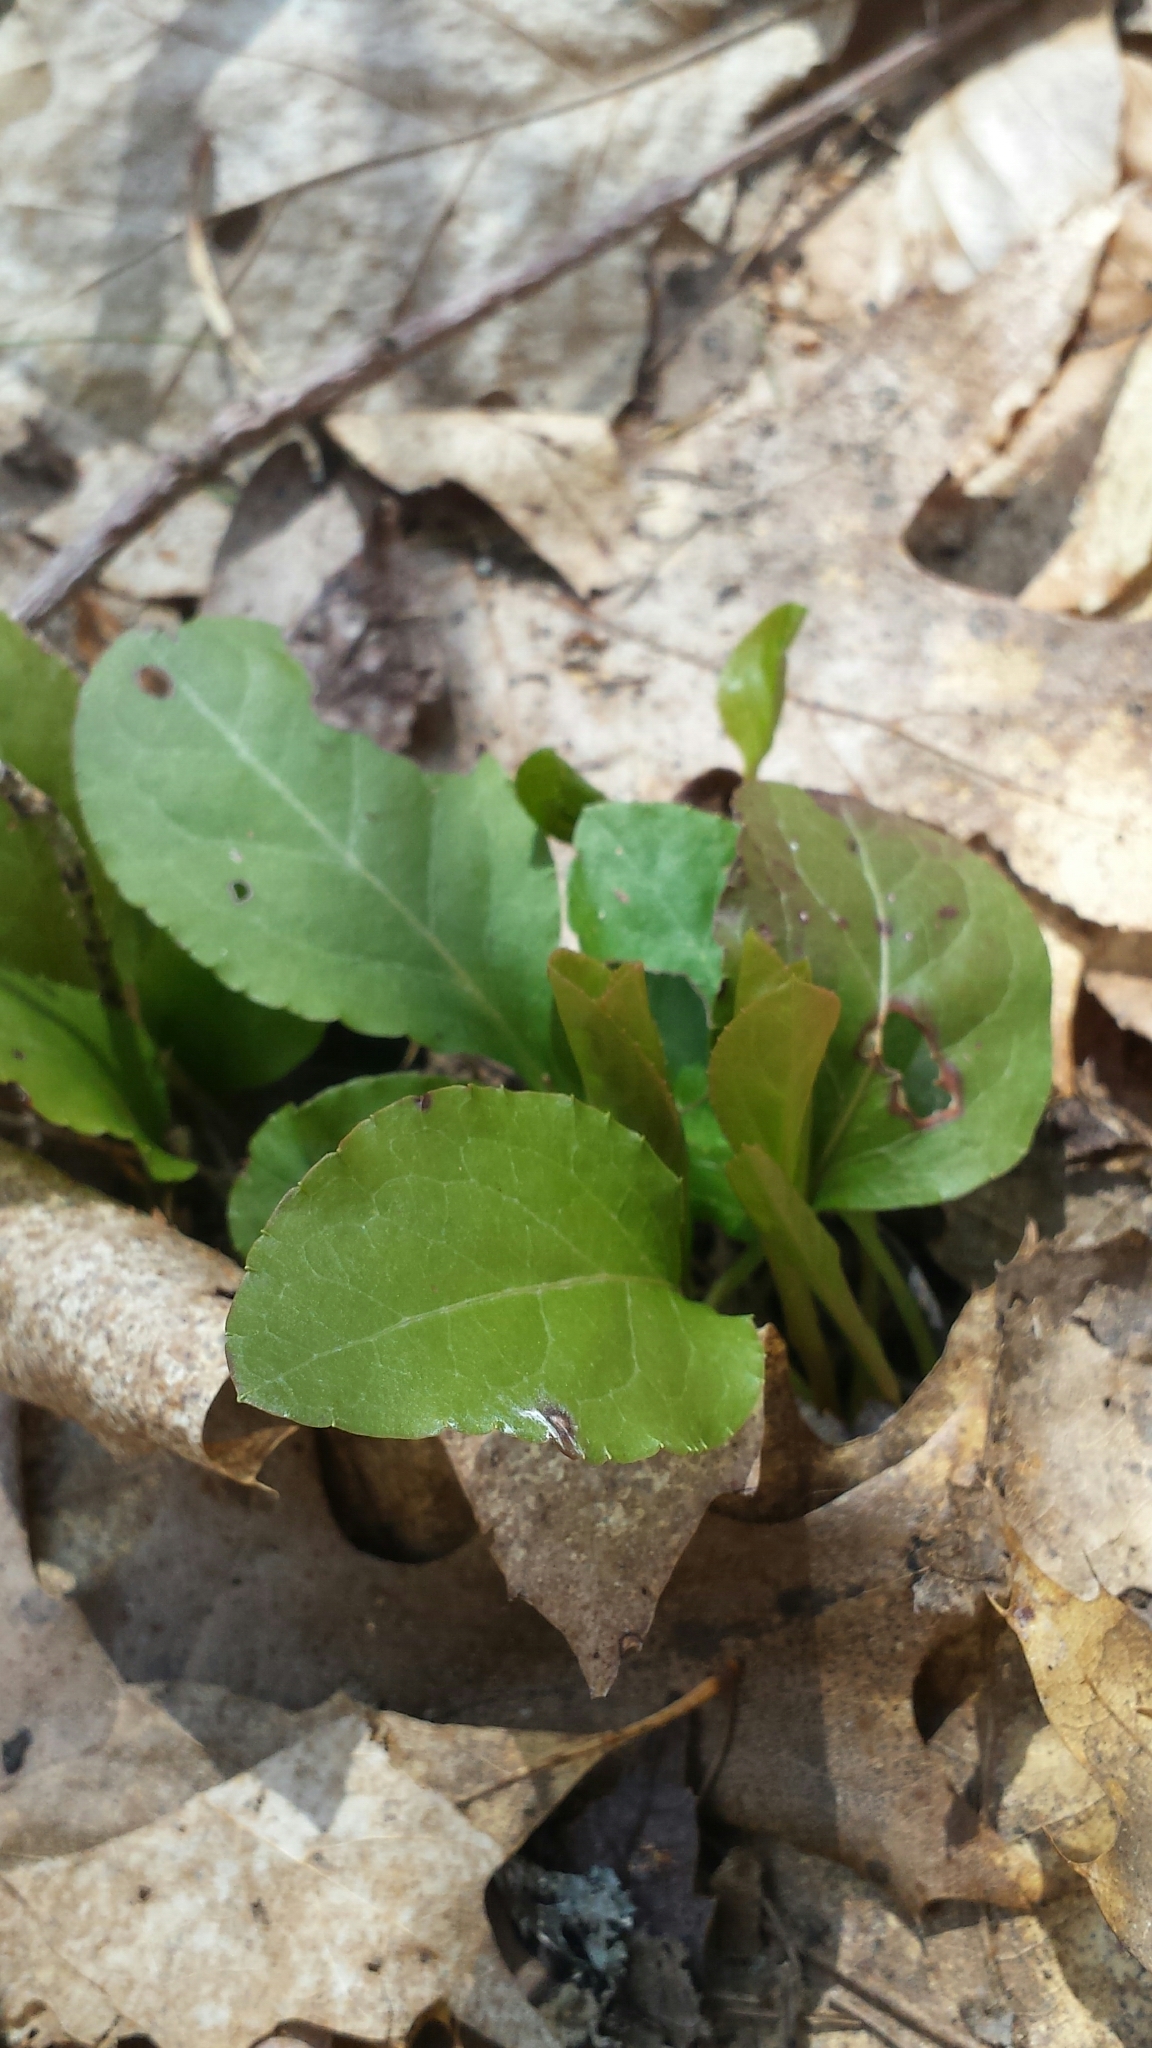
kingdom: Plantae
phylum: Tracheophyta
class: Magnoliopsida
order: Ericales
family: Ericaceae
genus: Pyrola
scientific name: Pyrola elliptica
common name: Shinleaf
